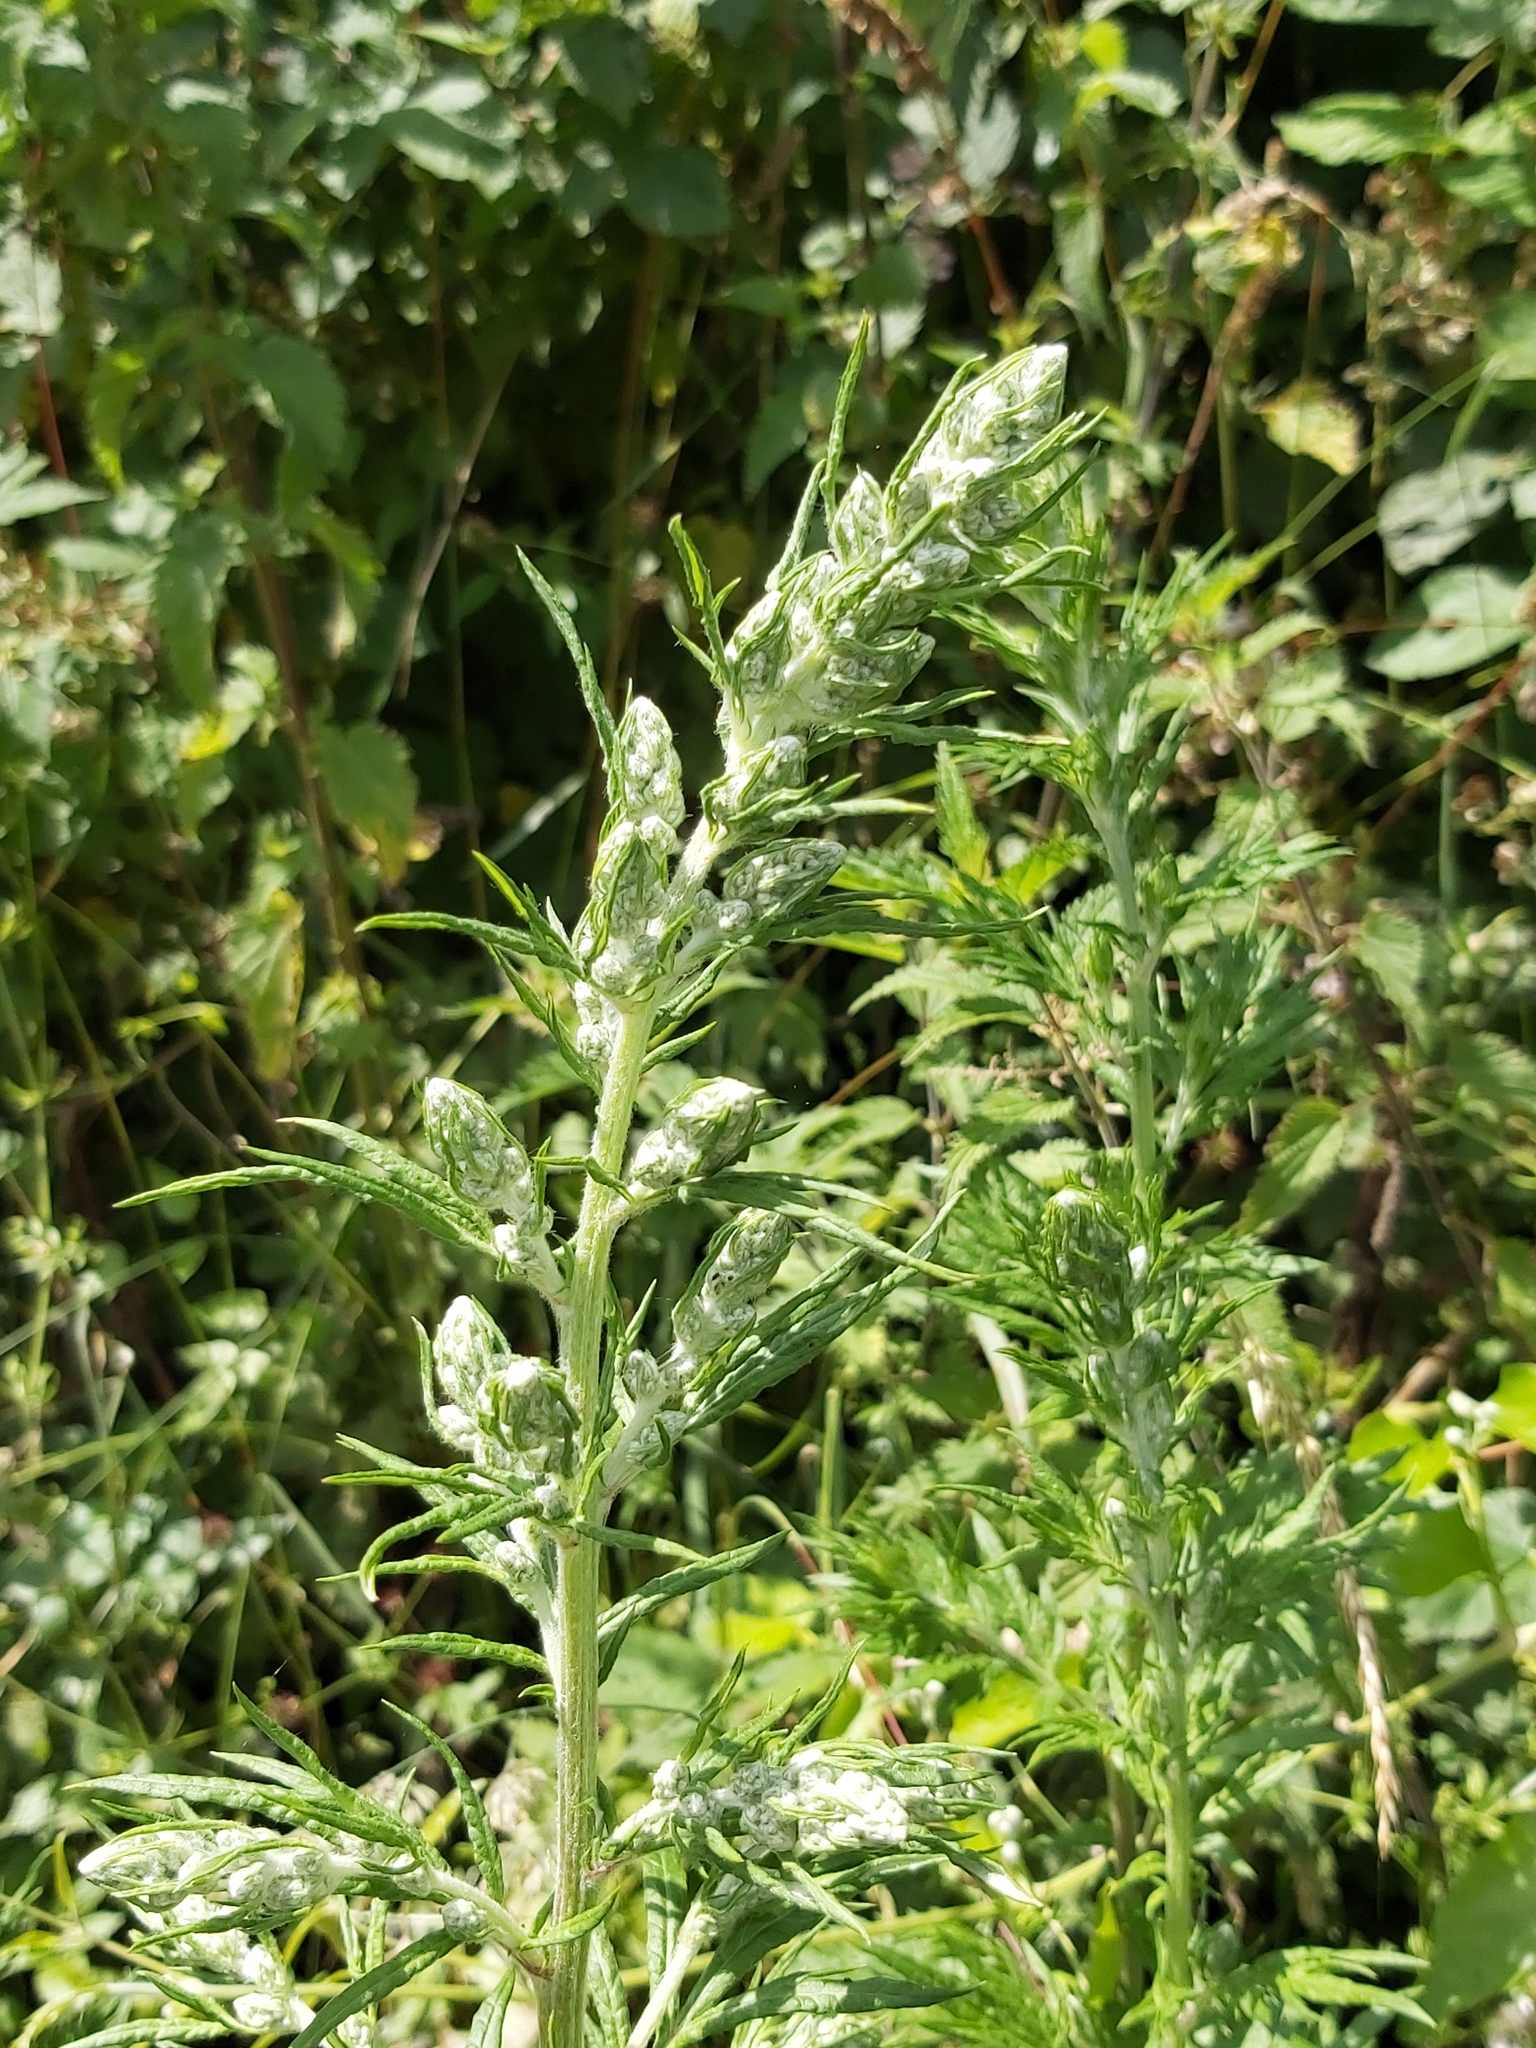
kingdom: Plantae
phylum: Tracheophyta
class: Magnoliopsida
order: Asterales
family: Asteraceae
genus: Artemisia
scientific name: Artemisia vulgaris
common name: Mugwort
